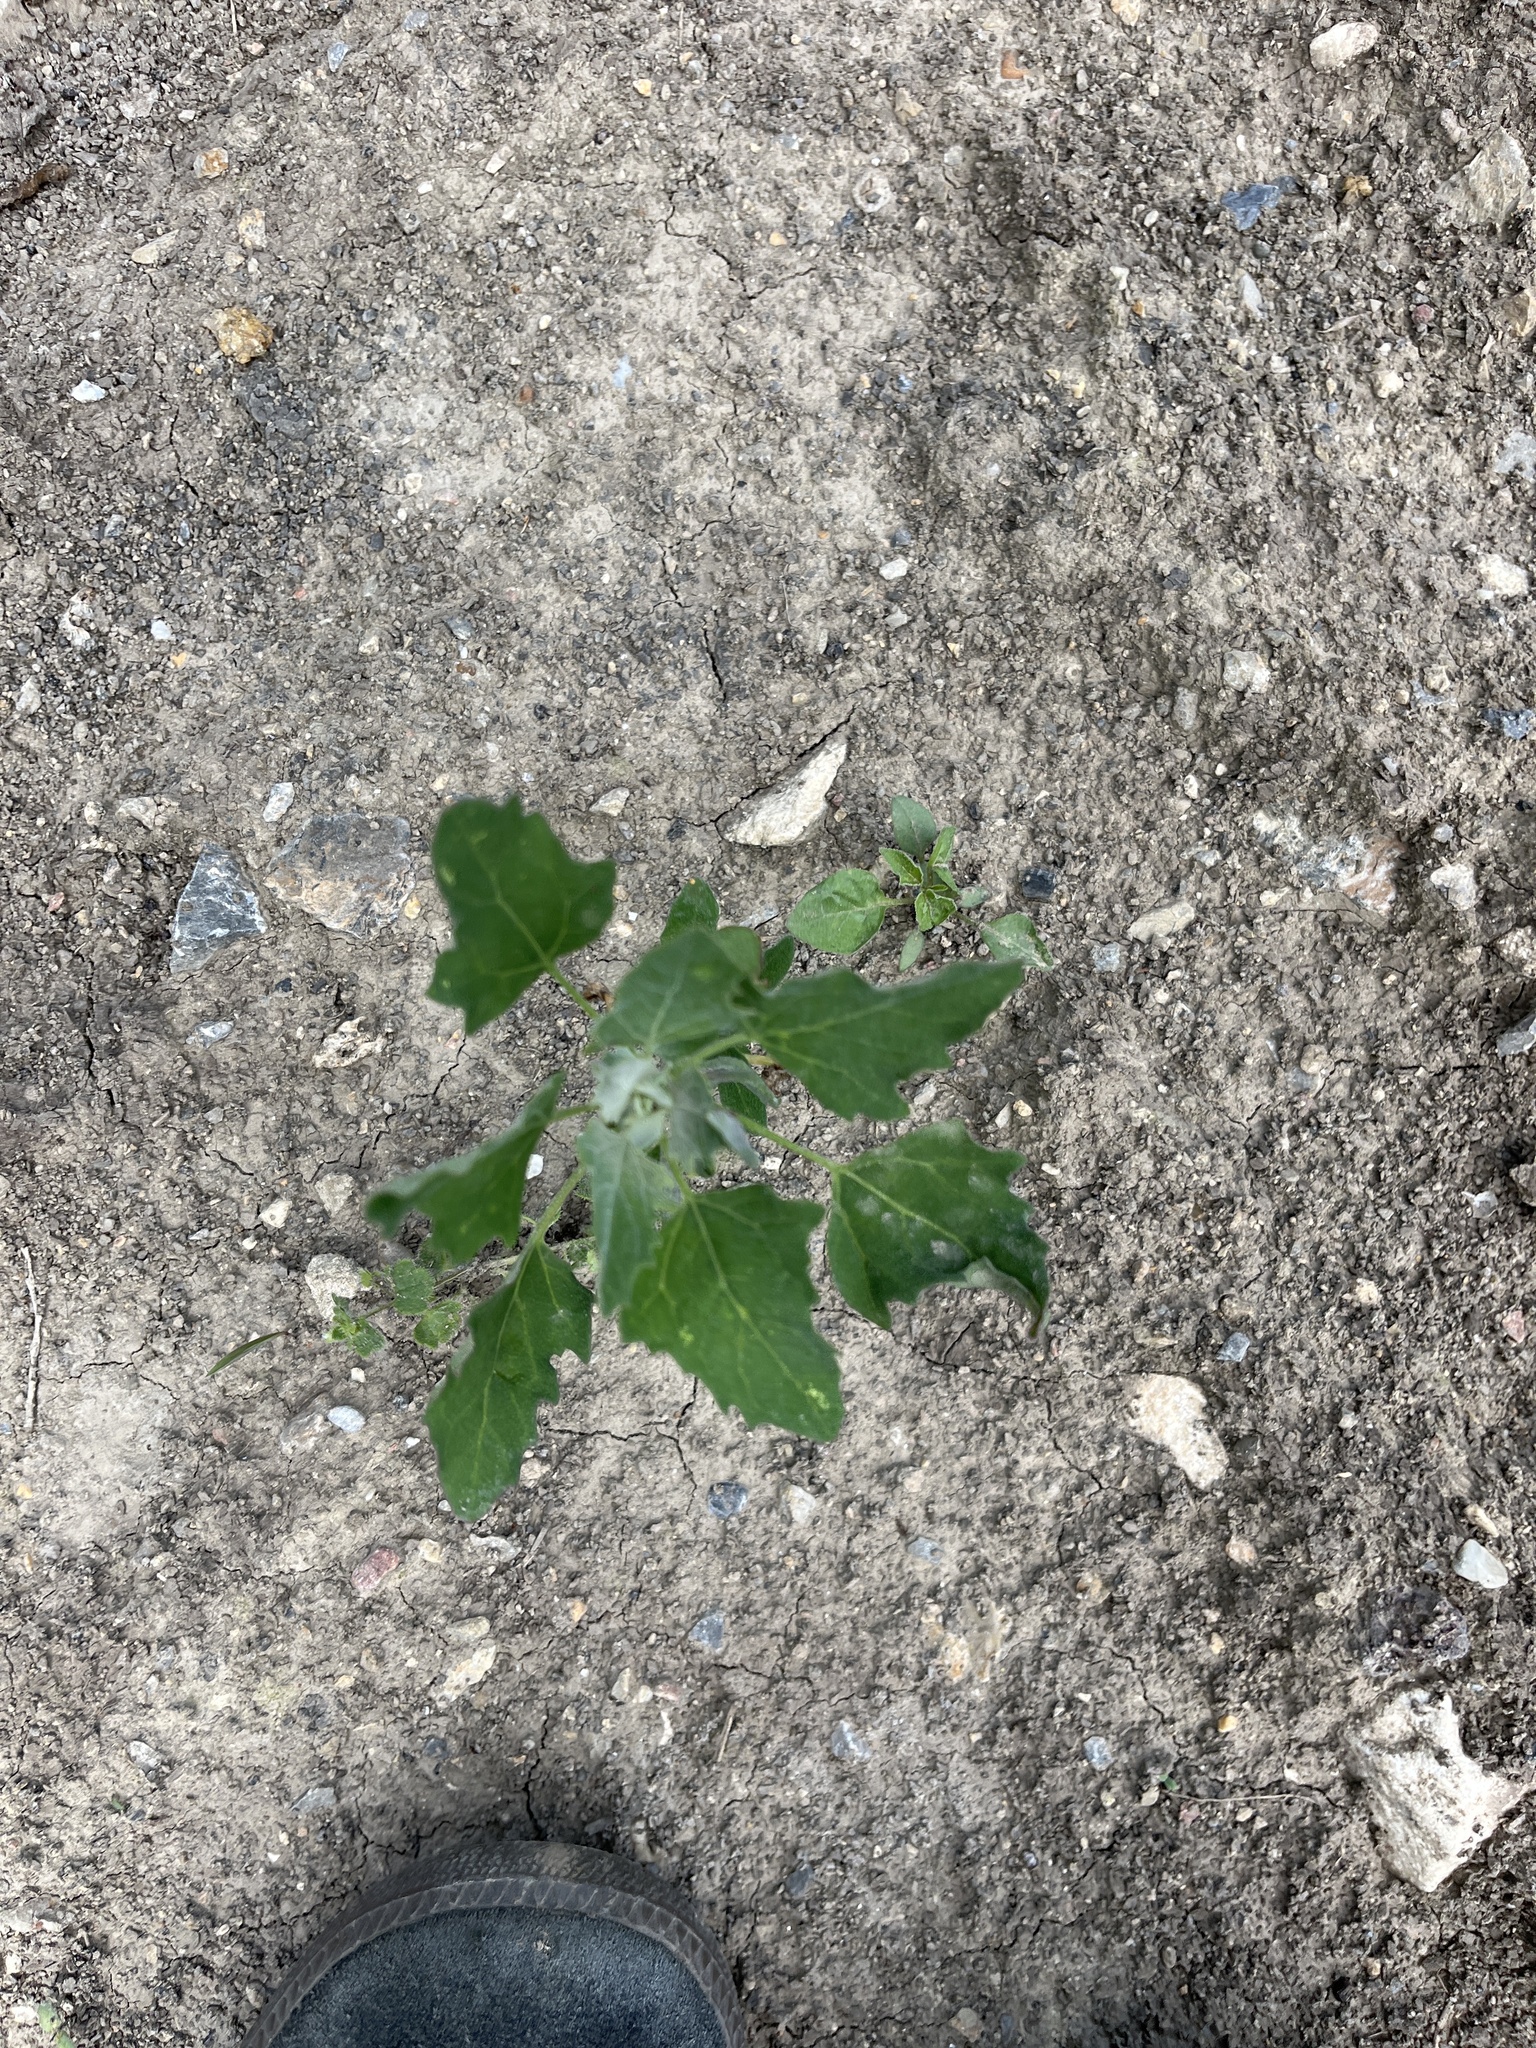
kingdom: Plantae
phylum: Tracheophyta
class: Magnoliopsida
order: Caryophyllales
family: Amaranthaceae
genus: Chenopodium
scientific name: Chenopodium album
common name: Fat-hen
